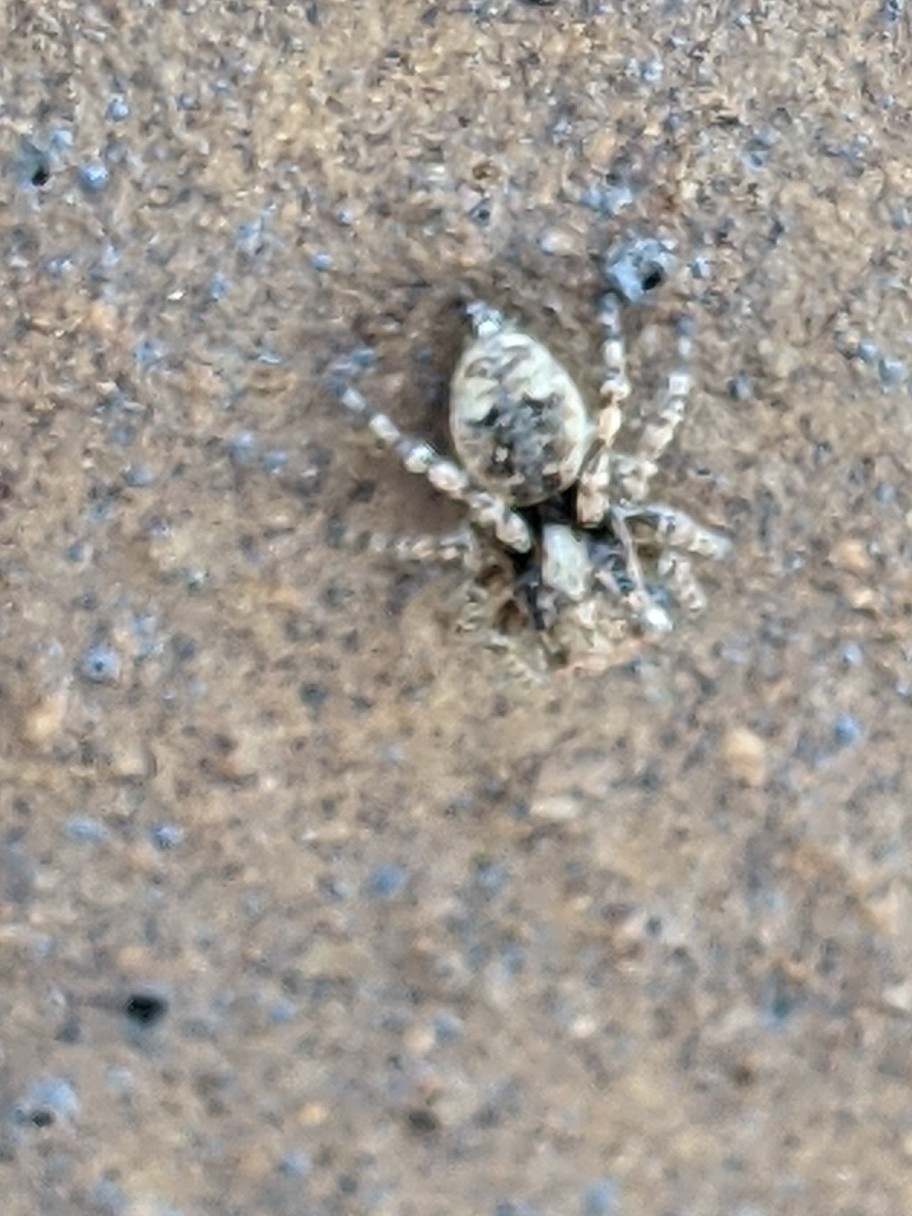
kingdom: Animalia
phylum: Arthropoda
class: Arachnida
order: Araneae
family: Salticidae
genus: Attulus
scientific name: Attulus fasciger
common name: Asiatic wall jumping spider
